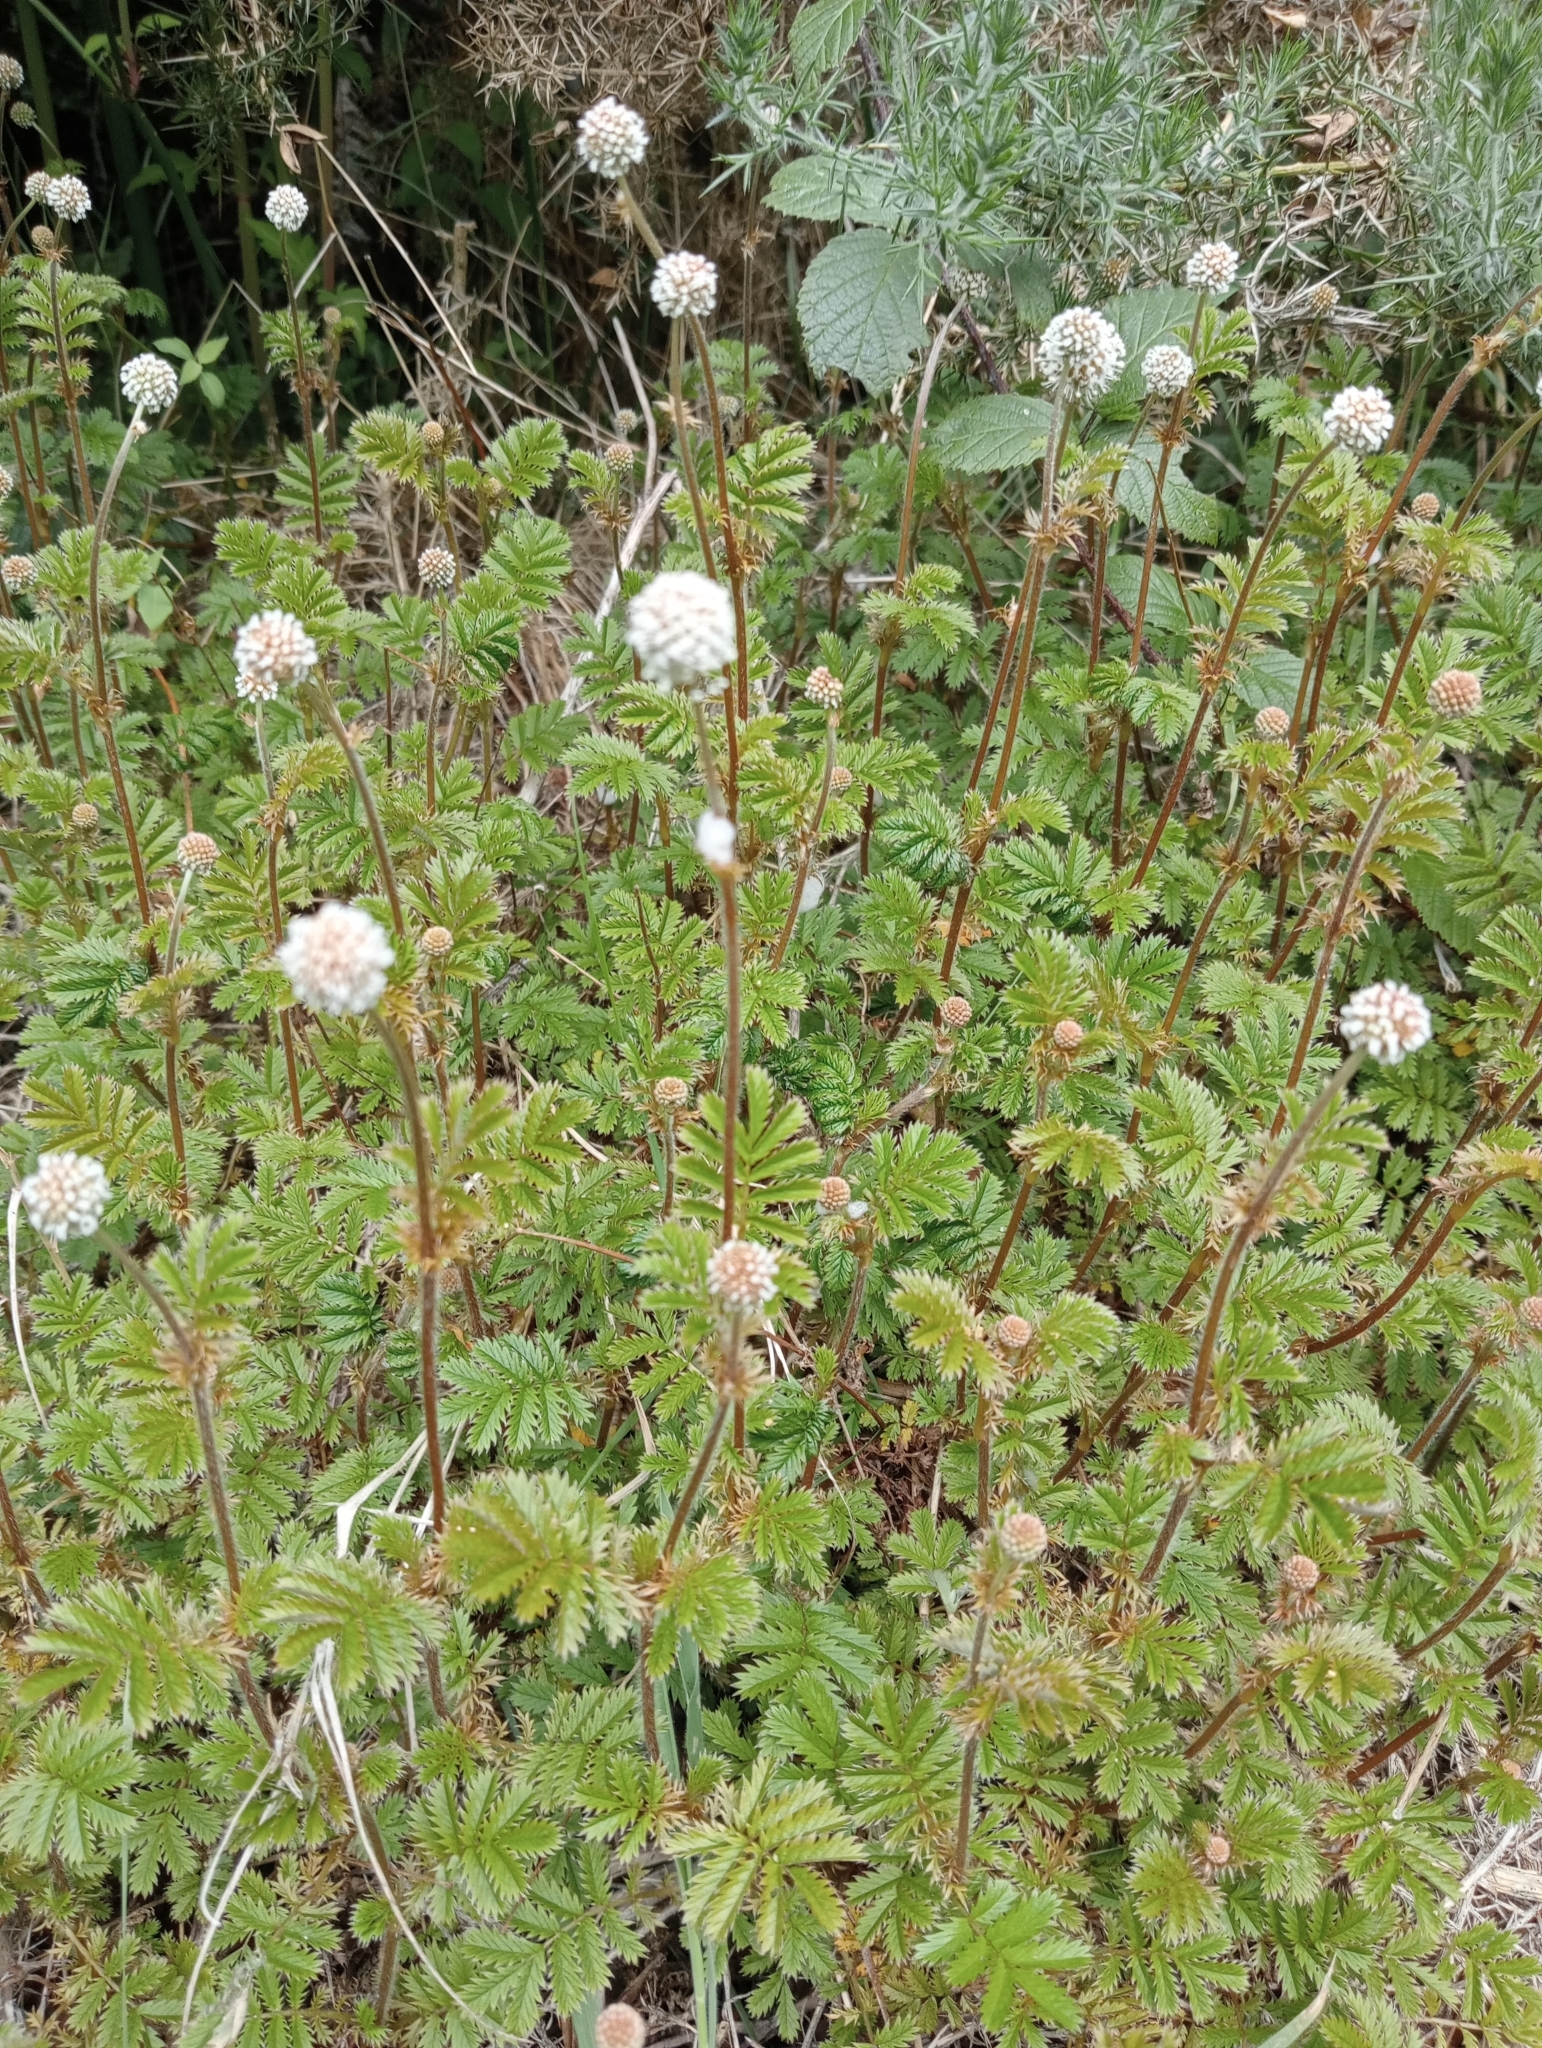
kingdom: Plantae
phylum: Tracheophyta
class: Magnoliopsida
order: Rosales
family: Rosaceae
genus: Acaena
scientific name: Acaena anserinifolia
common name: Bronze pirri-pirri-bur
